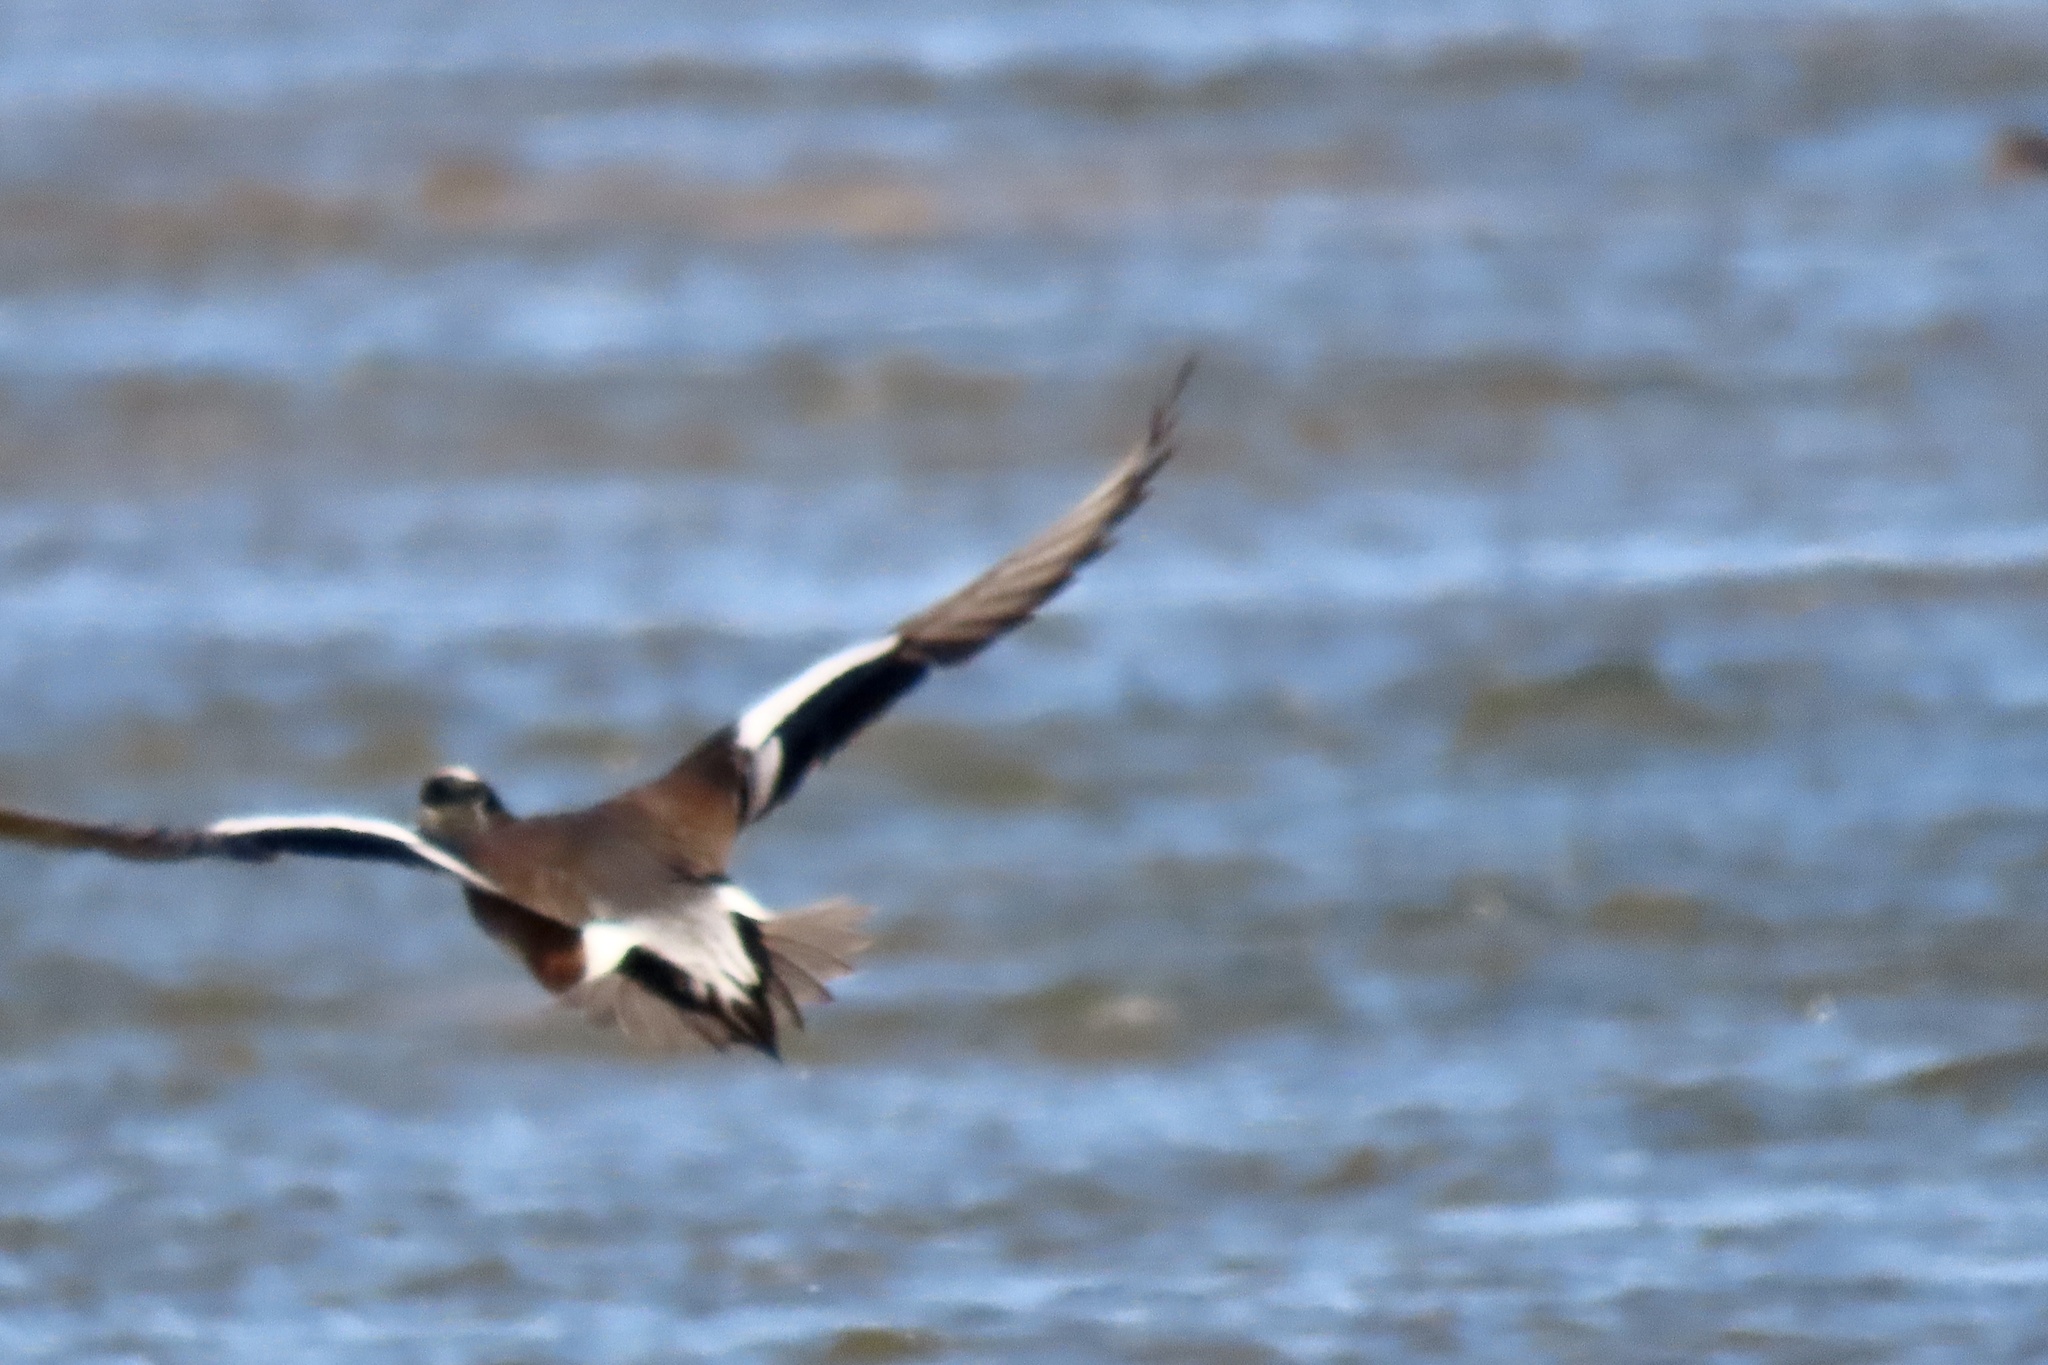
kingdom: Animalia
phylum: Chordata
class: Aves
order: Anseriformes
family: Anatidae
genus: Mareca
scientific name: Mareca americana
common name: American wigeon
